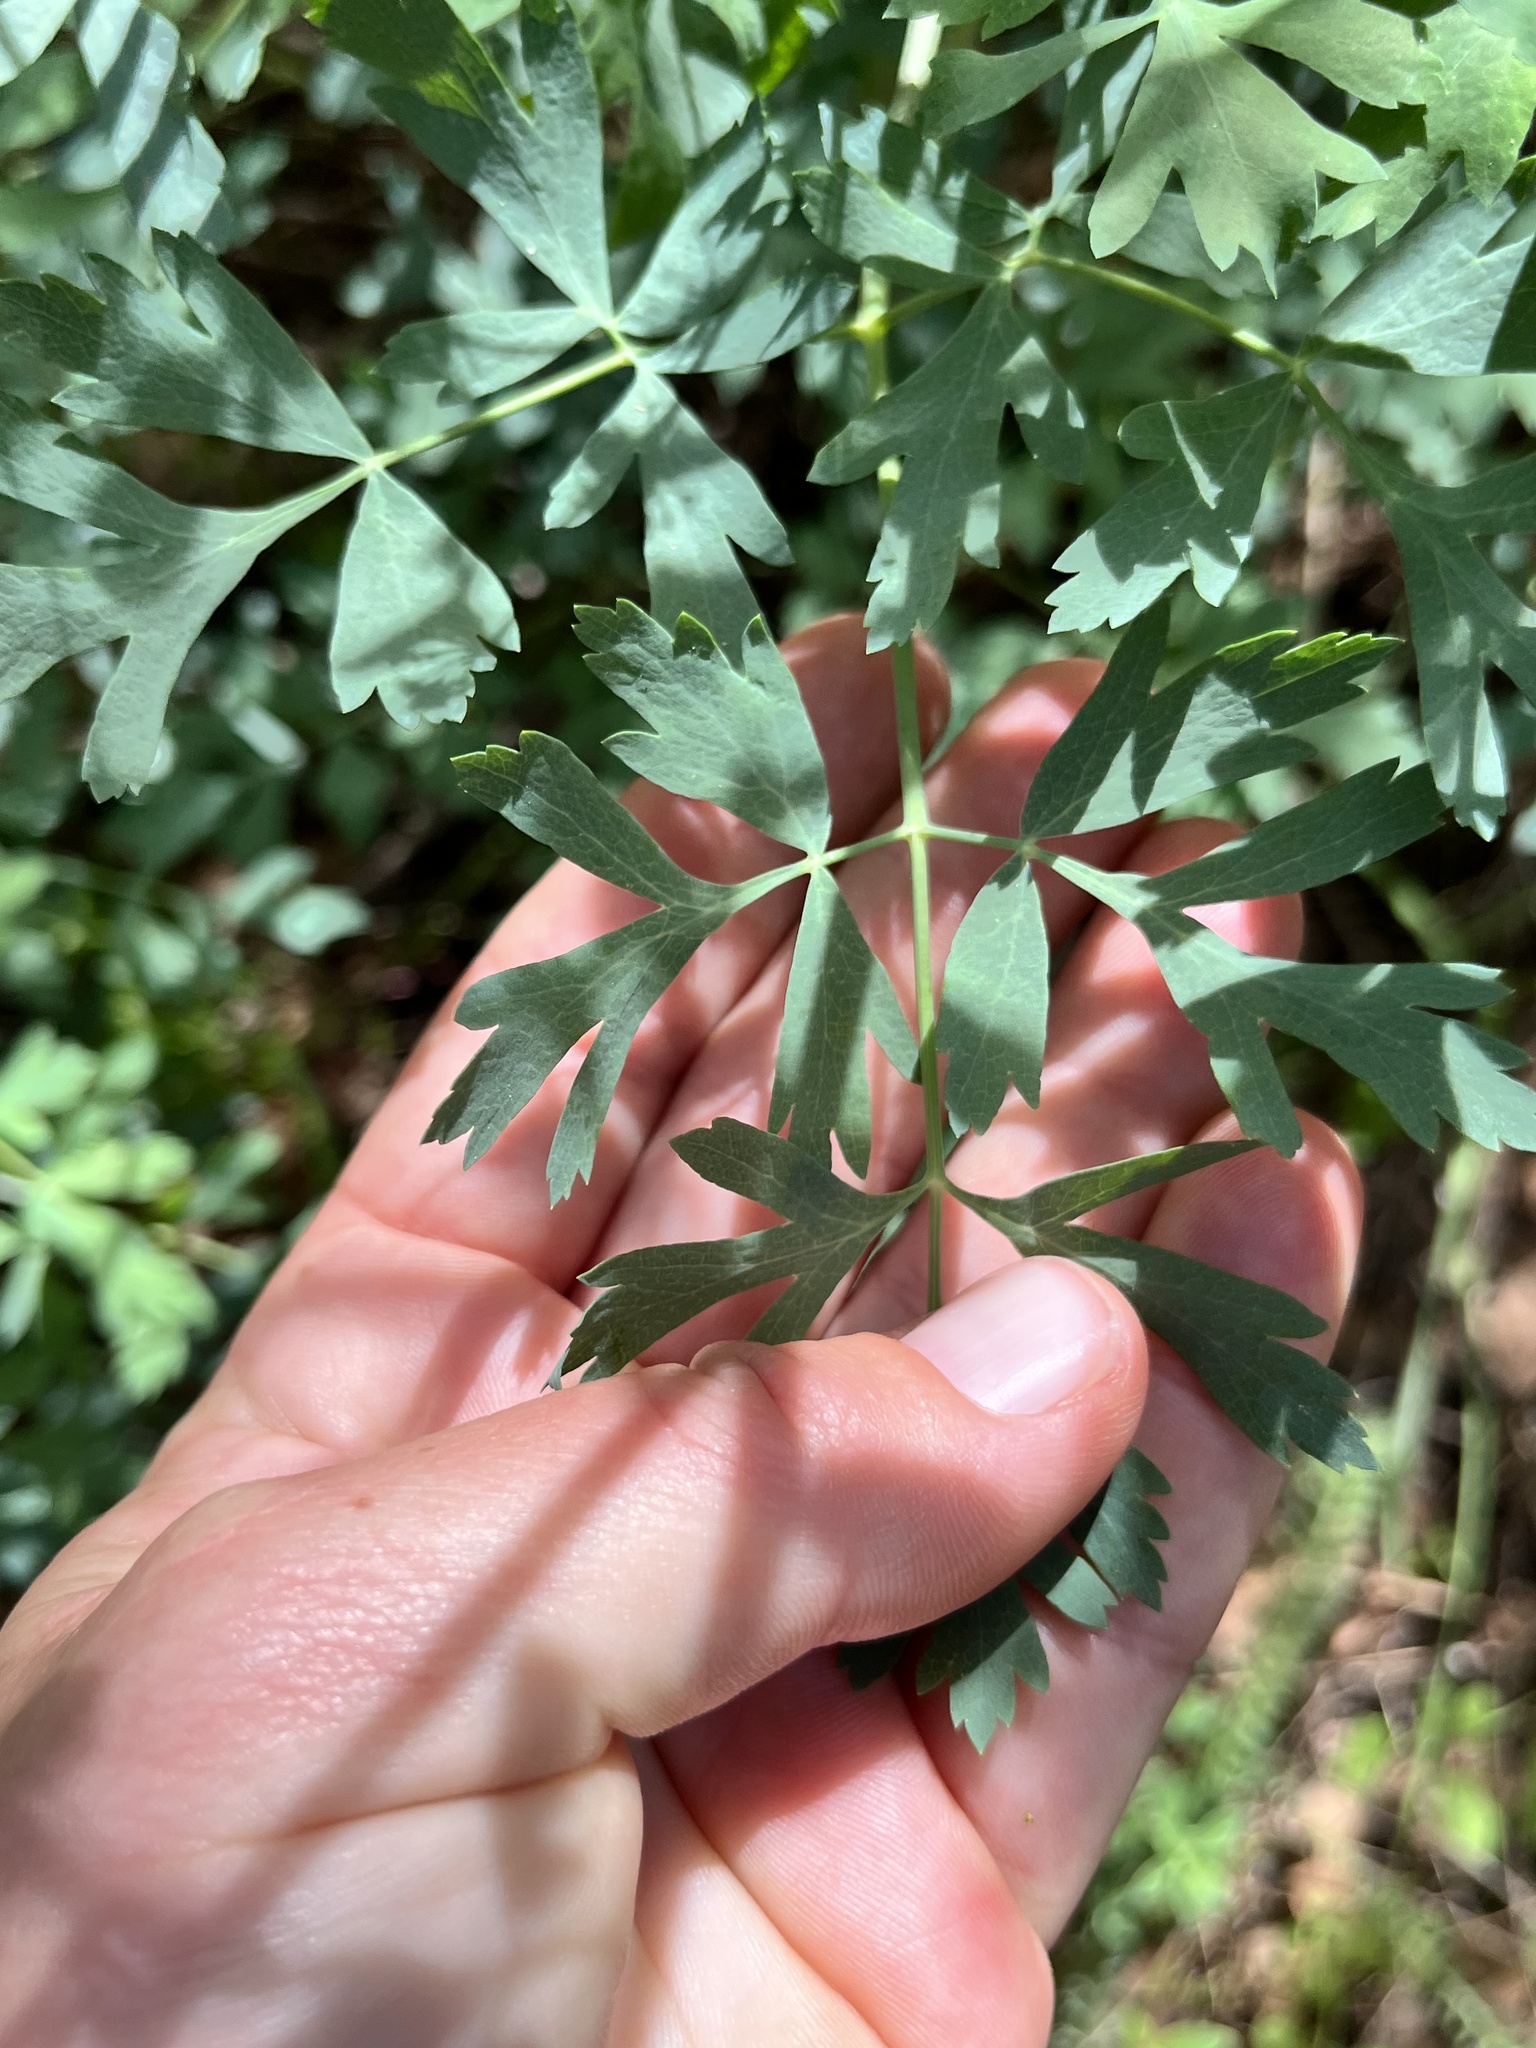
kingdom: Plantae
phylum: Tracheophyta
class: Magnoliopsida
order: Apiales
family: Apiaceae
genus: Lomatium
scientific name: Lomatium californicum
